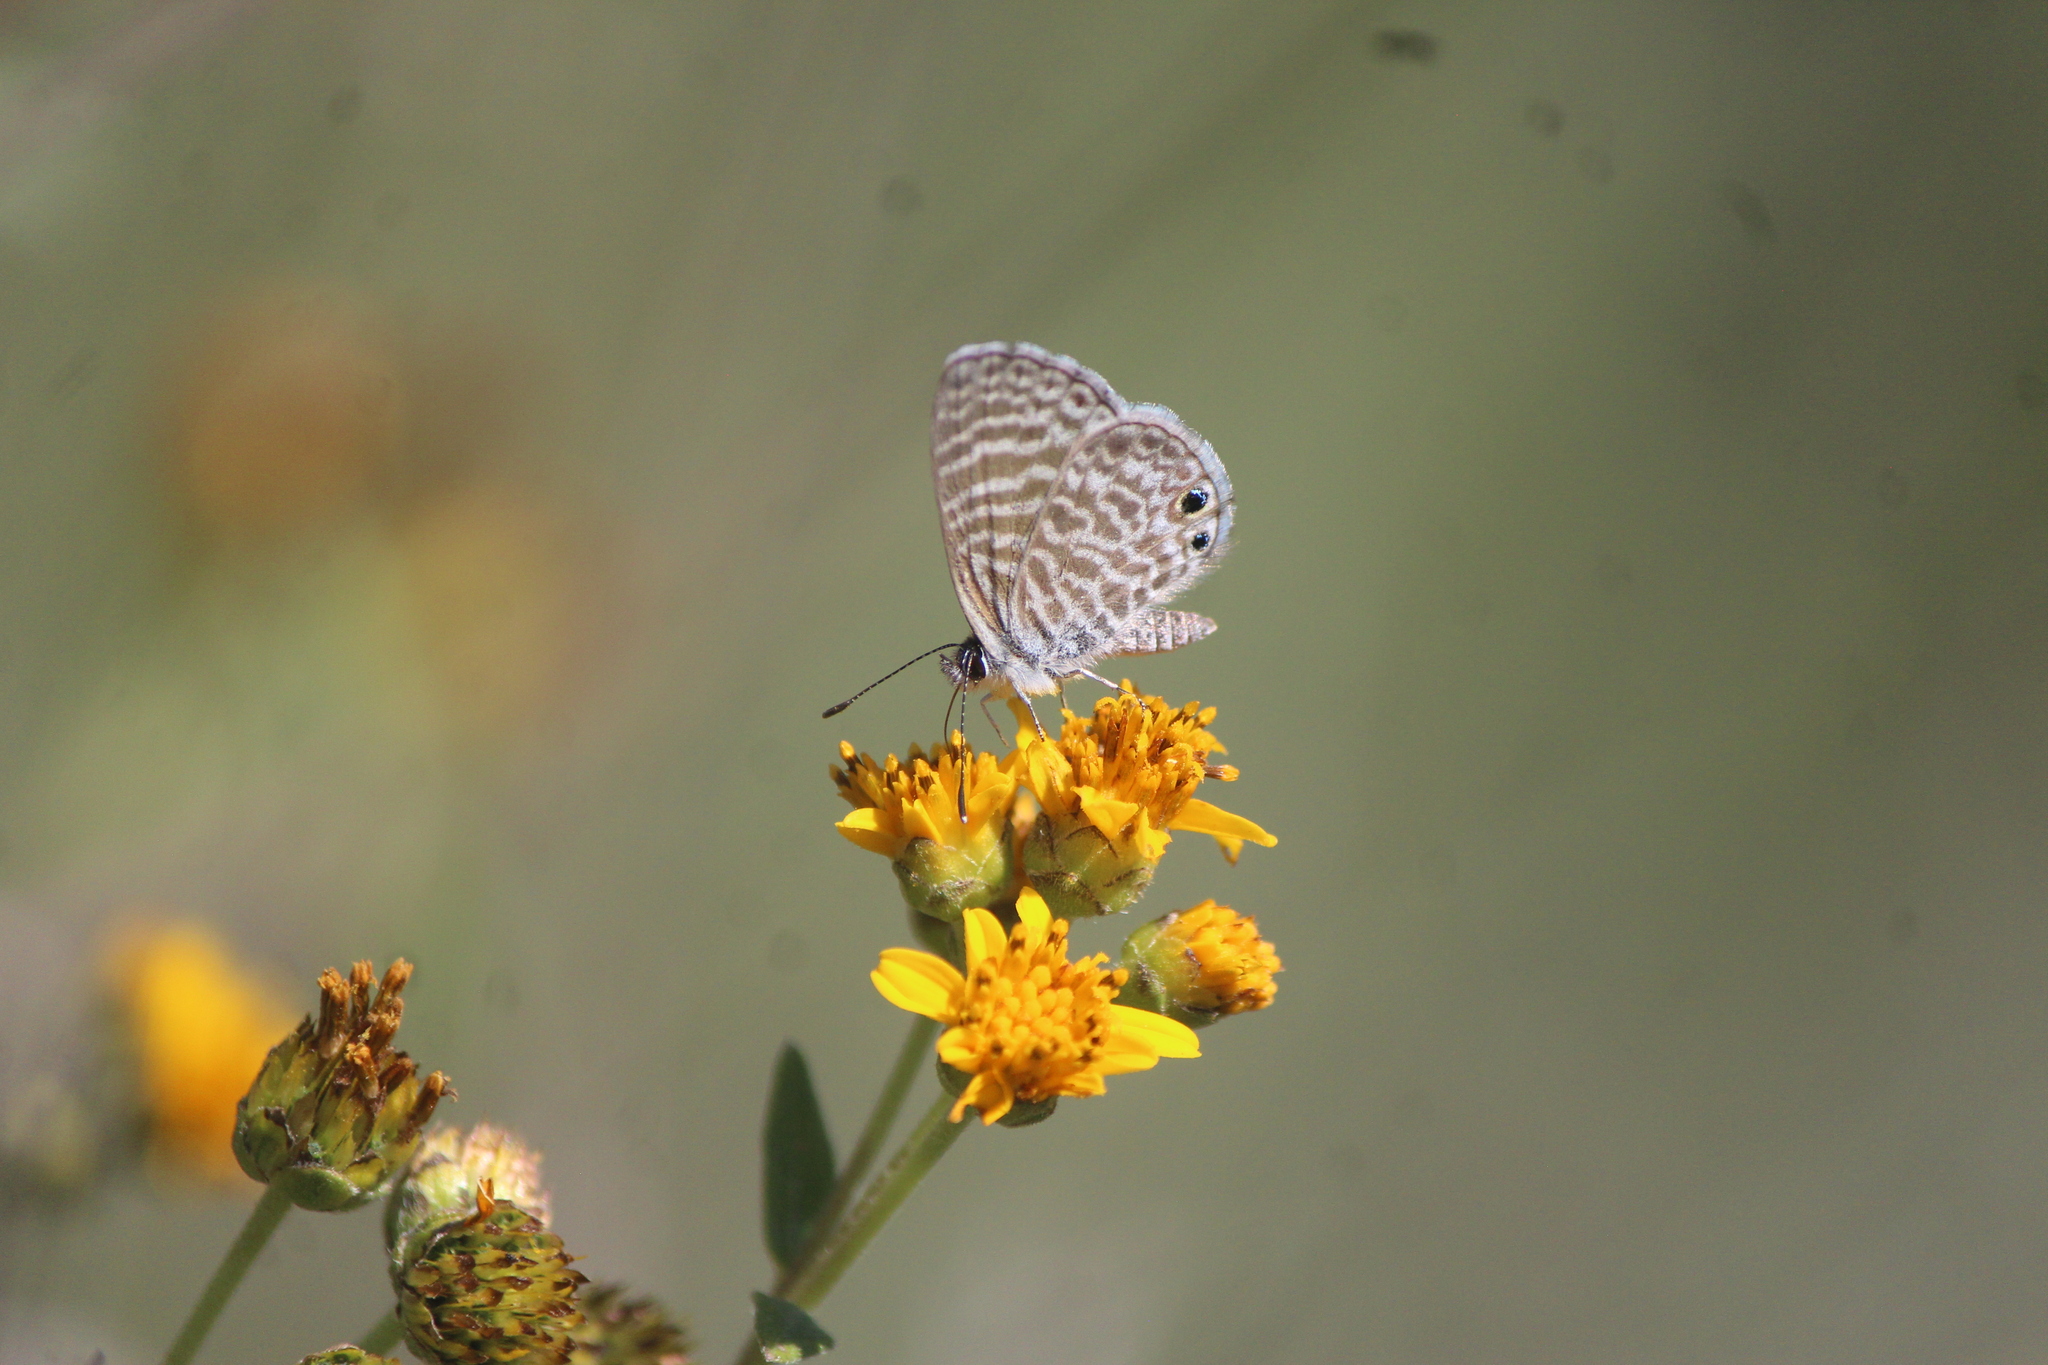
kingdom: Animalia
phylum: Arthropoda
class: Insecta
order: Lepidoptera
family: Lycaenidae
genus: Leptotes
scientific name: Leptotes marina
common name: Marine blue
